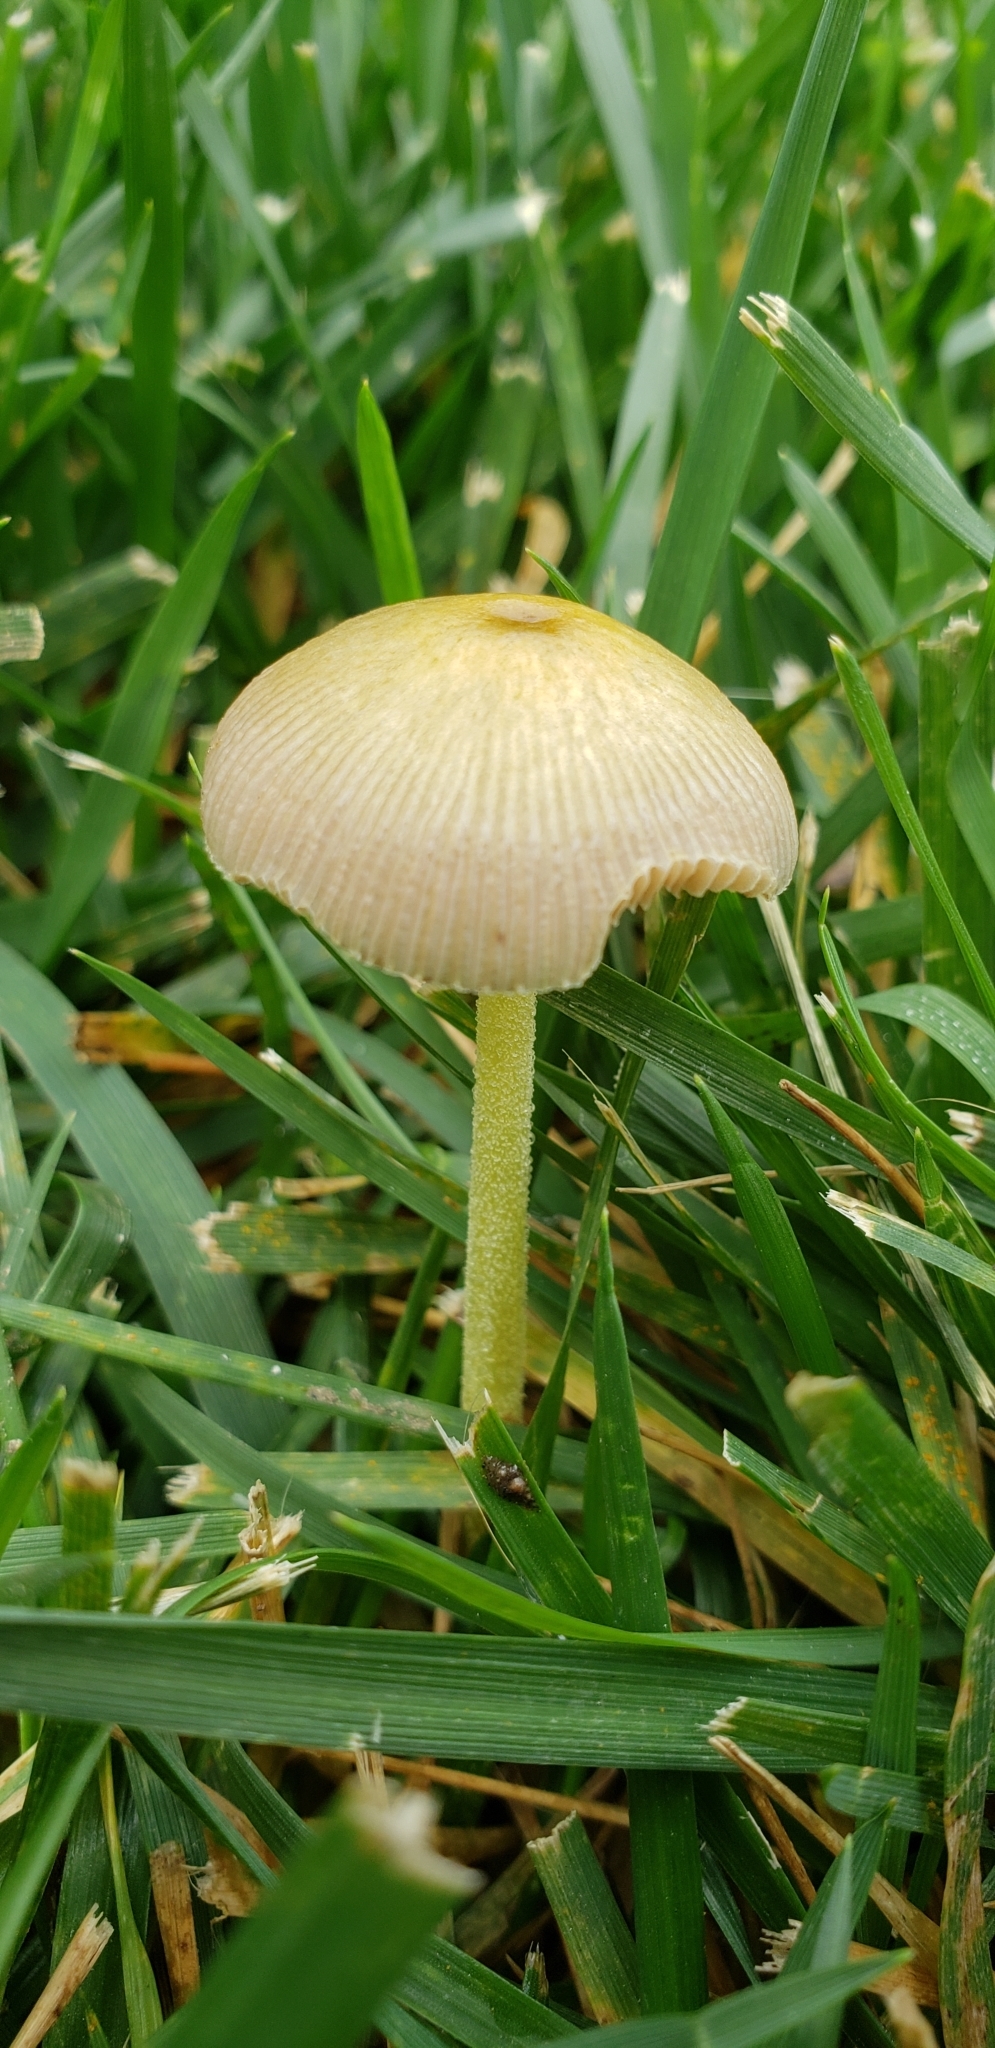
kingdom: Fungi
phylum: Basidiomycota
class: Agaricomycetes
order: Agaricales
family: Bolbitiaceae
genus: Bolbitius
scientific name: Bolbitius titubans
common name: Yellow fieldcap
